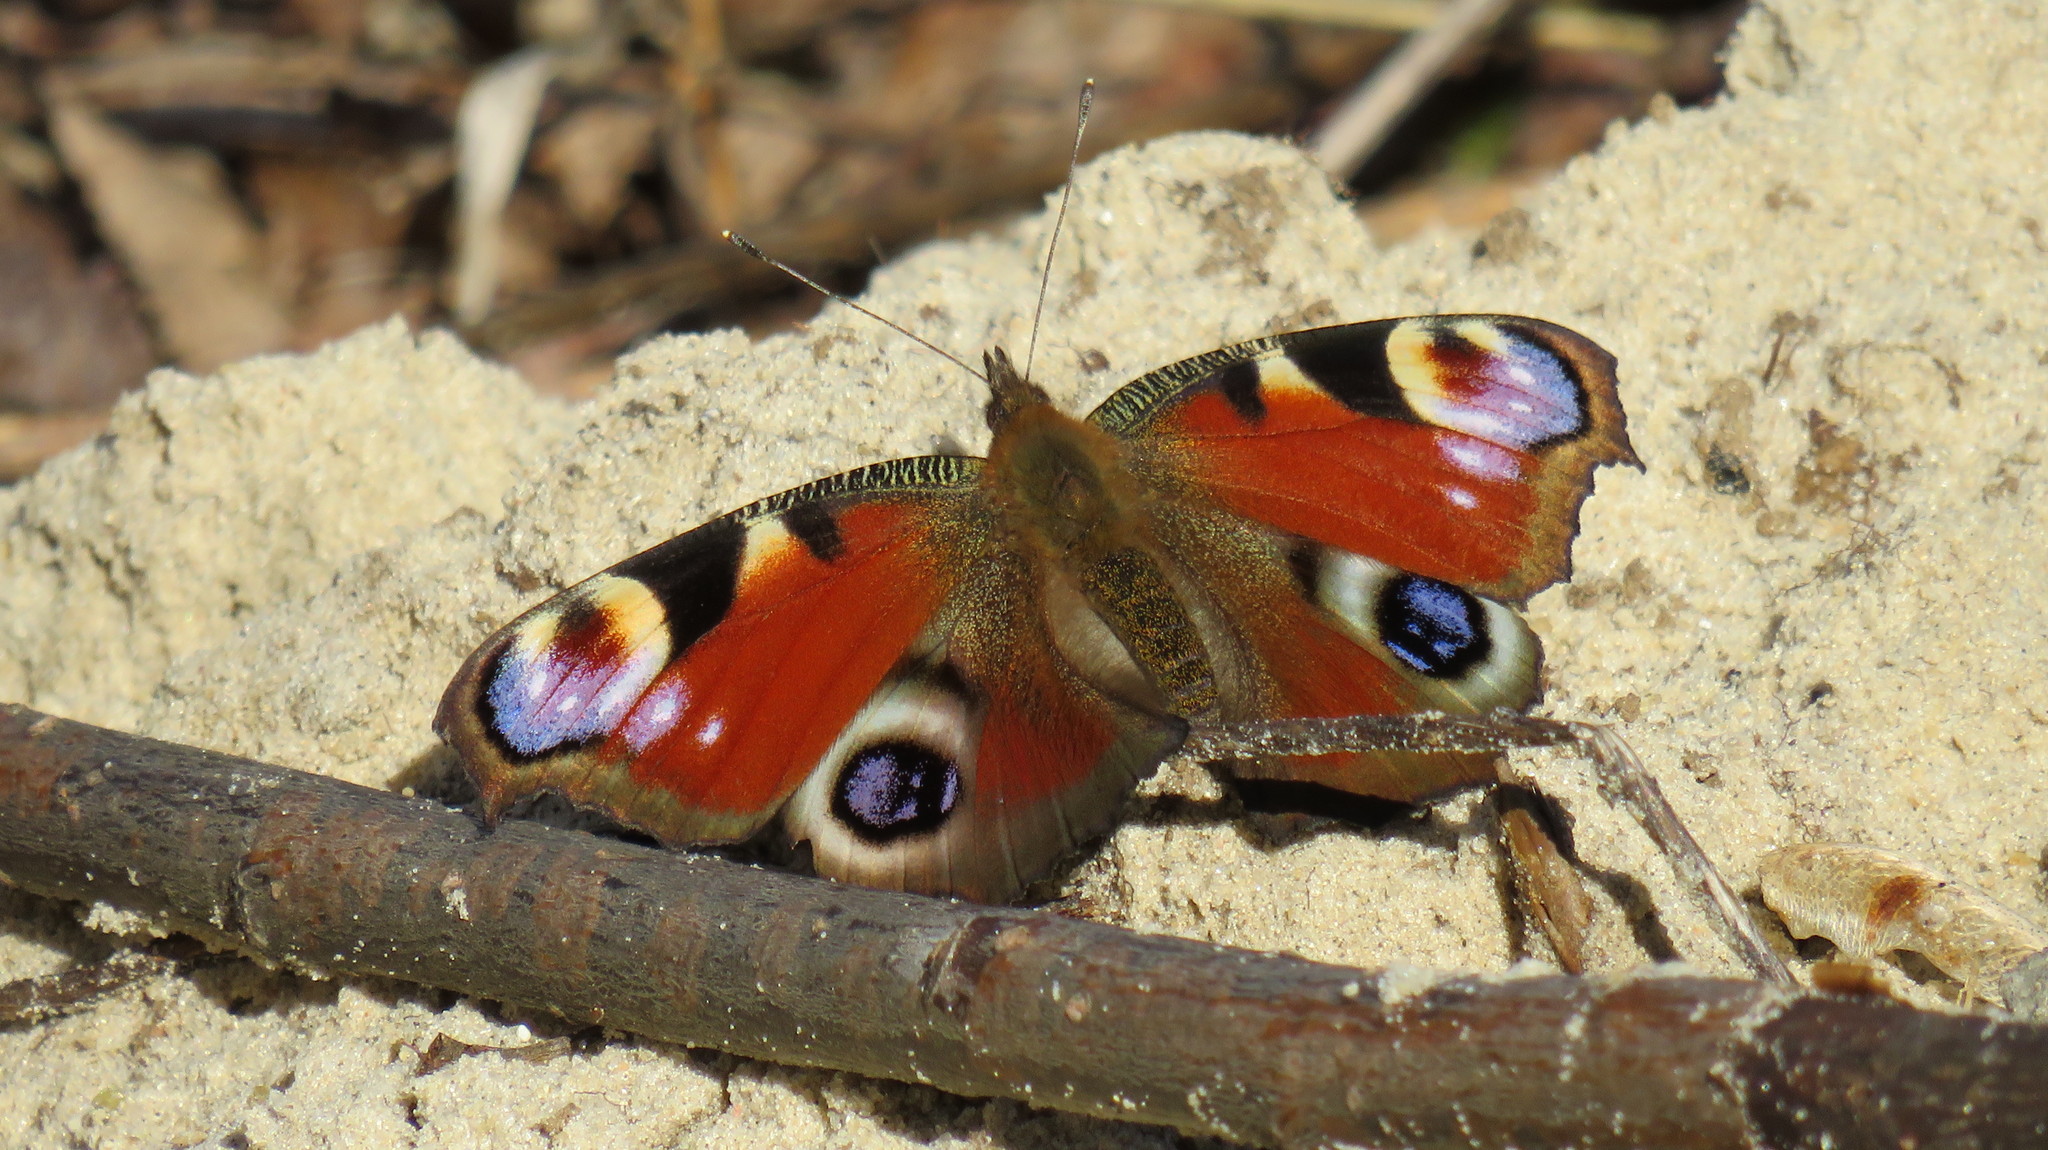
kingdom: Animalia
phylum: Arthropoda
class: Insecta
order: Lepidoptera
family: Nymphalidae
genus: Aglais
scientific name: Aglais io
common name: Peacock
